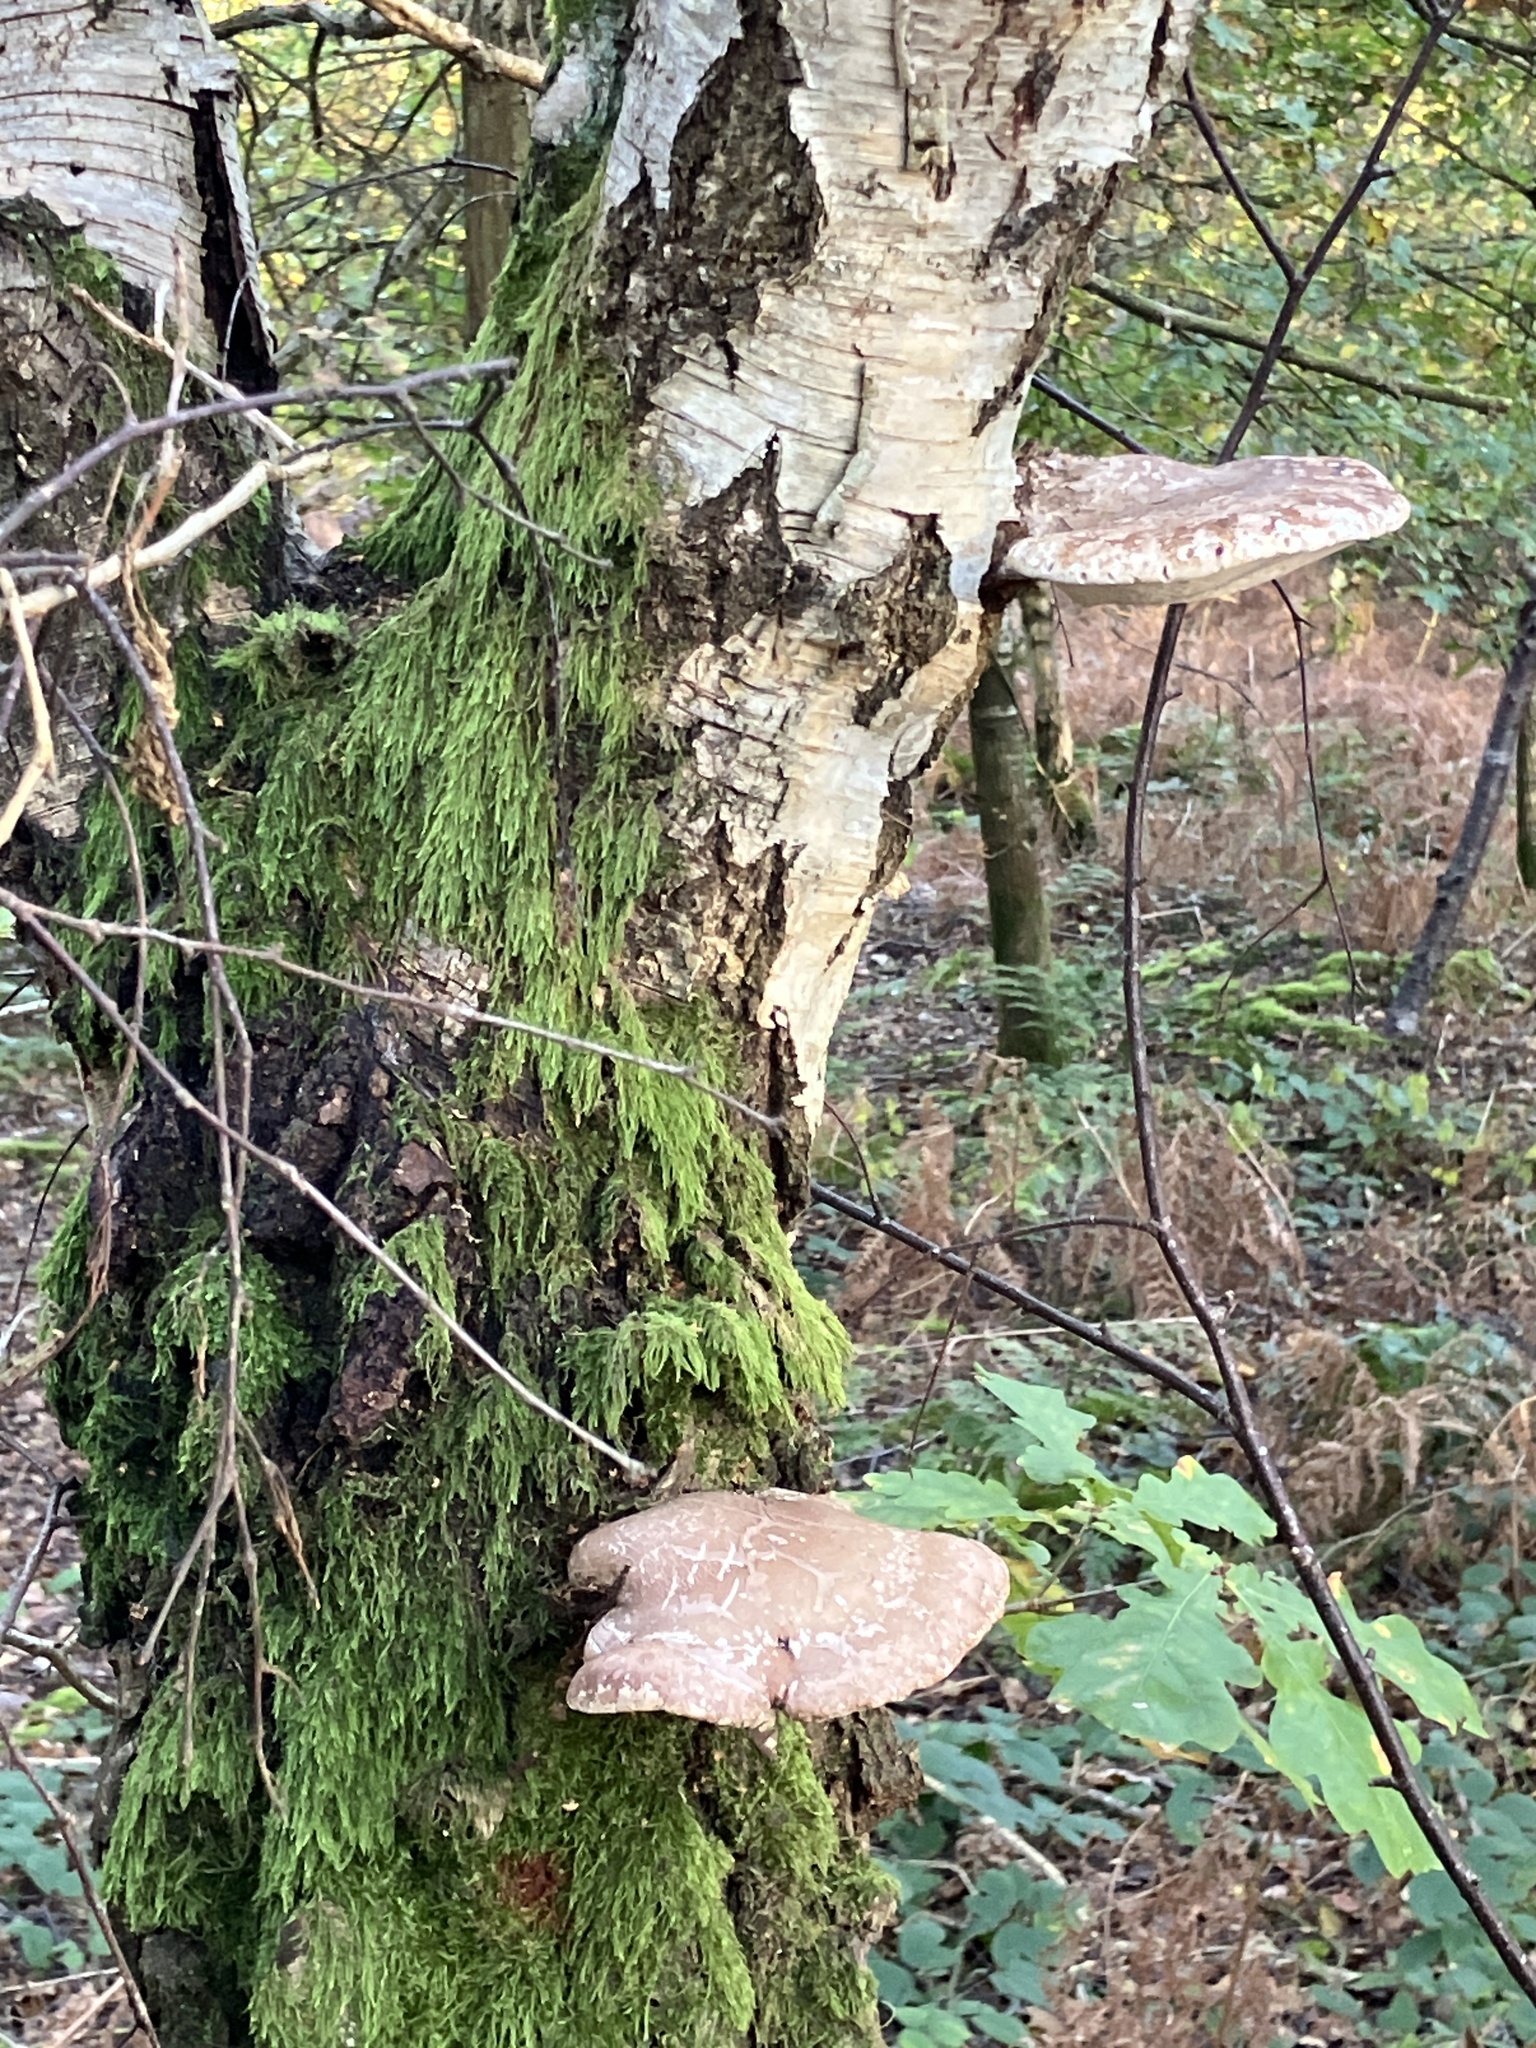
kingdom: Fungi
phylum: Basidiomycota
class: Agaricomycetes
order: Polyporales
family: Fomitopsidaceae
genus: Fomitopsis
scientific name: Fomitopsis betulina
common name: Birch polypore
